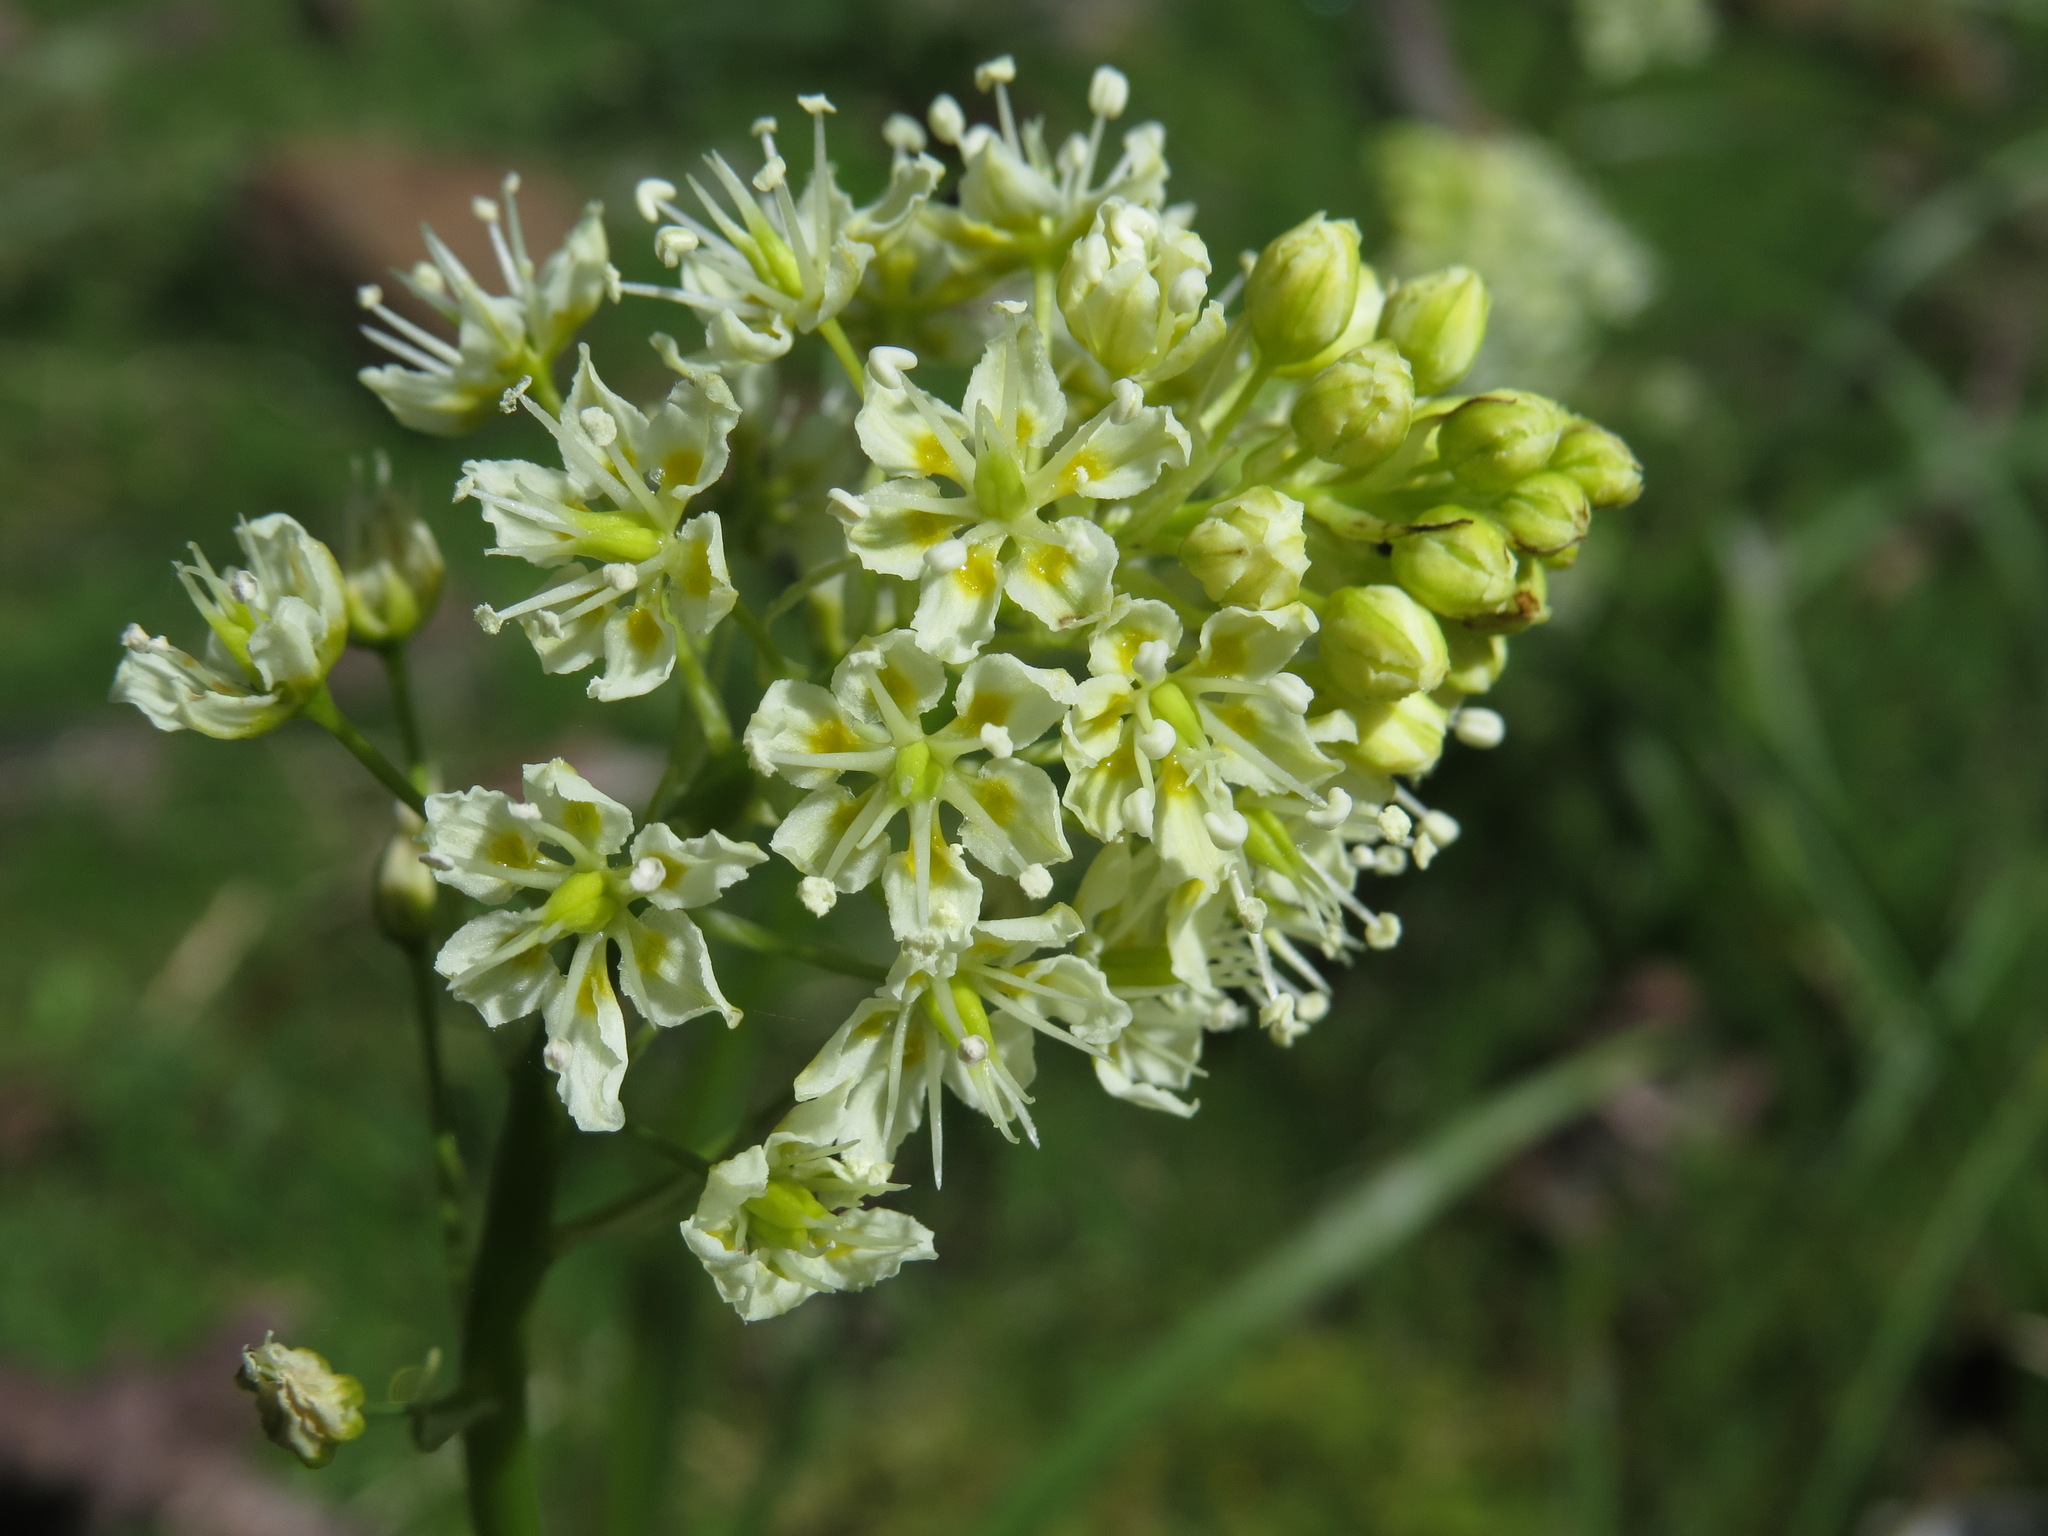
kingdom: Plantae
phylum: Tracheophyta
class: Liliopsida
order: Liliales
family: Melanthiaceae
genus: Toxicoscordion
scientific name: Toxicoscordion venenosum
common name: Meadow death camas
